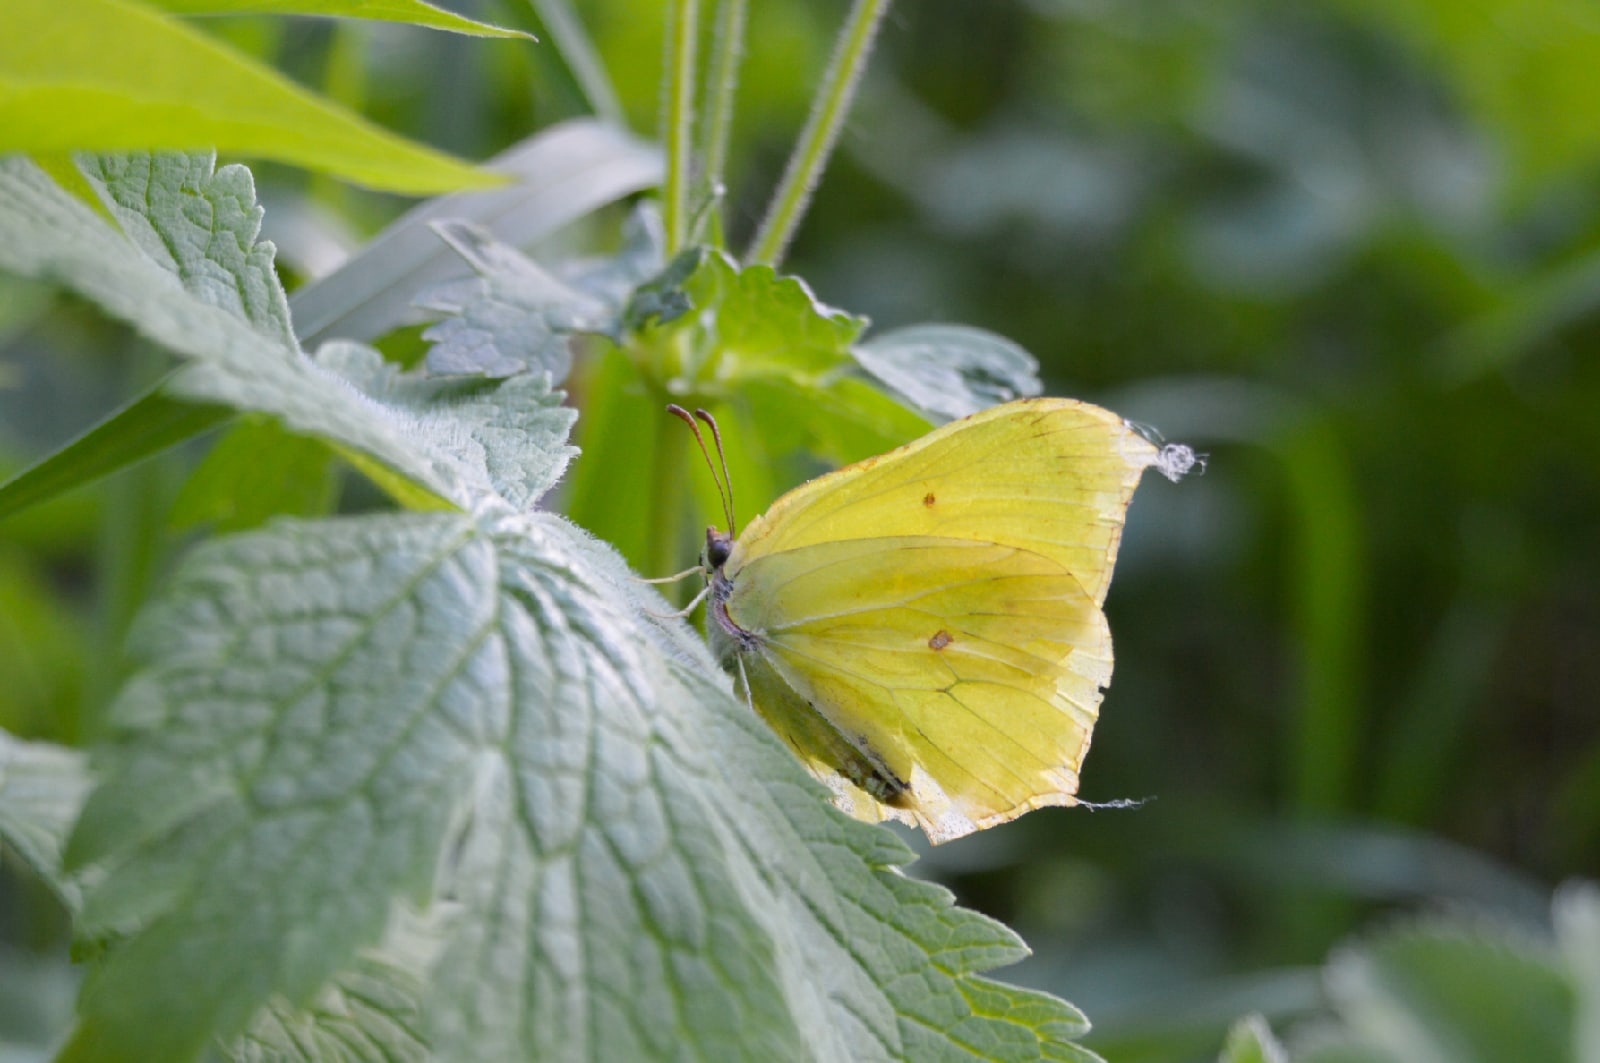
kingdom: Animalia
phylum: Arthropoda
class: Insecta
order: Lepidoptera
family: Pieridae
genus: Gonepteryx
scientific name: Gonepteryx rhamni
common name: Brimstone
